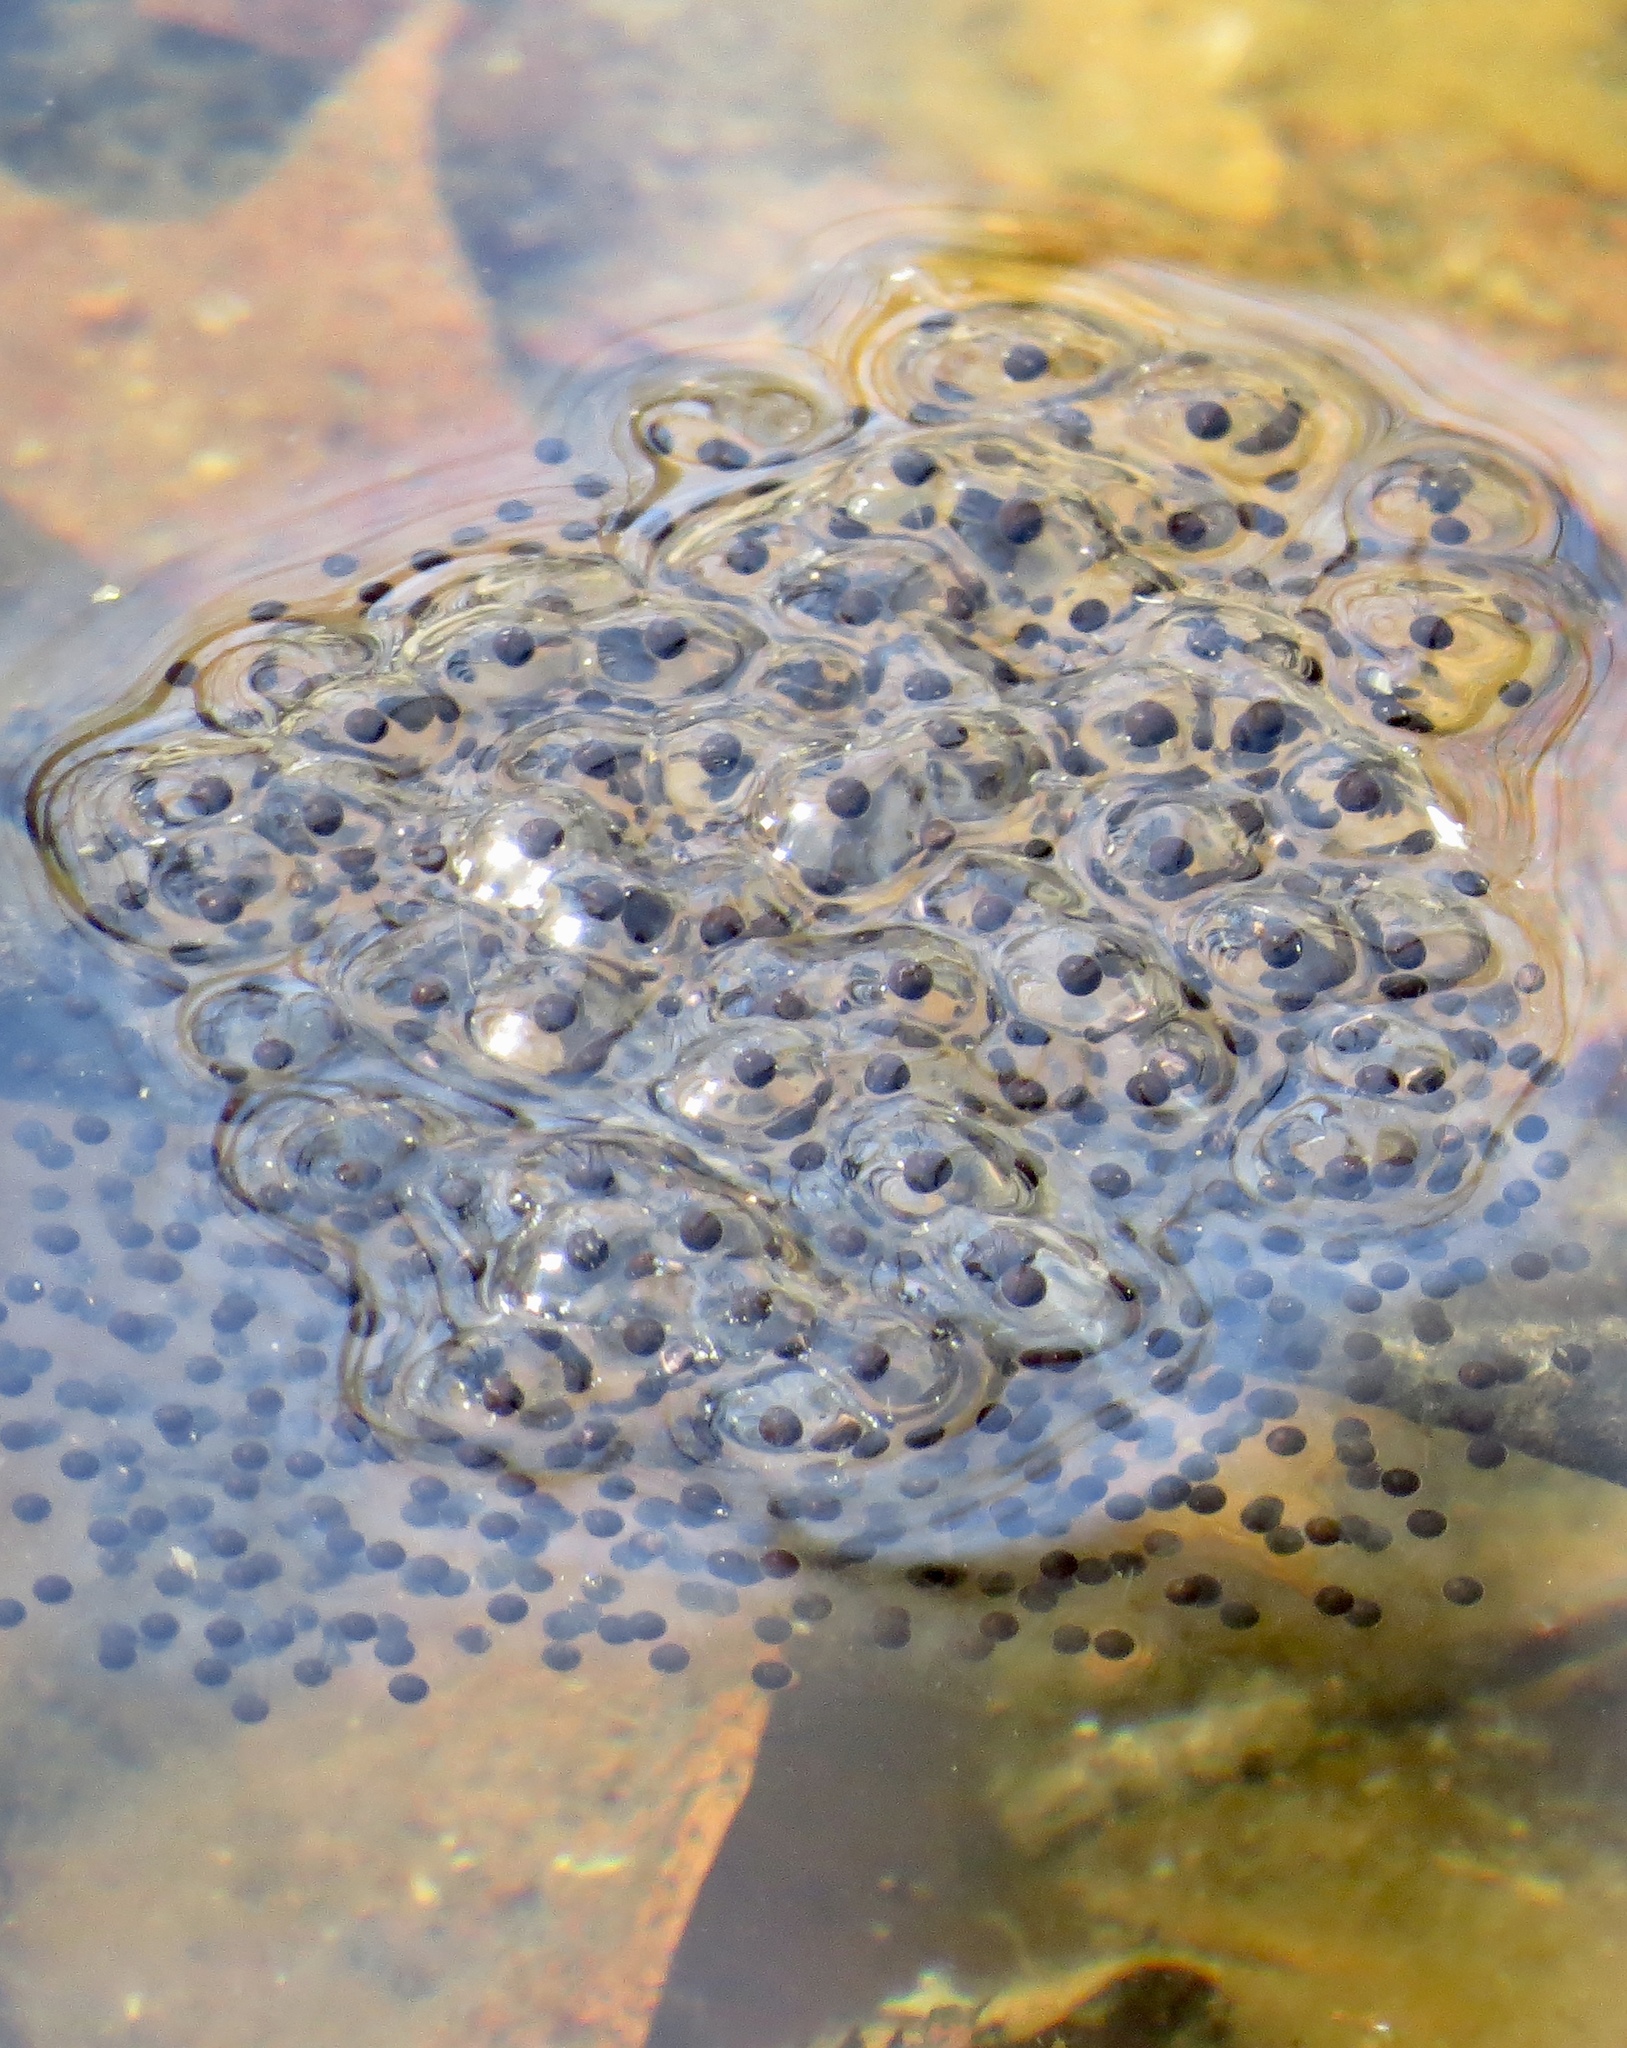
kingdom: Animalia
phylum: Chordata
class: Amphibia
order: Anura
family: Ranidae
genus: Lithobates
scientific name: Lithobates sylvaticus
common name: Wood frog
